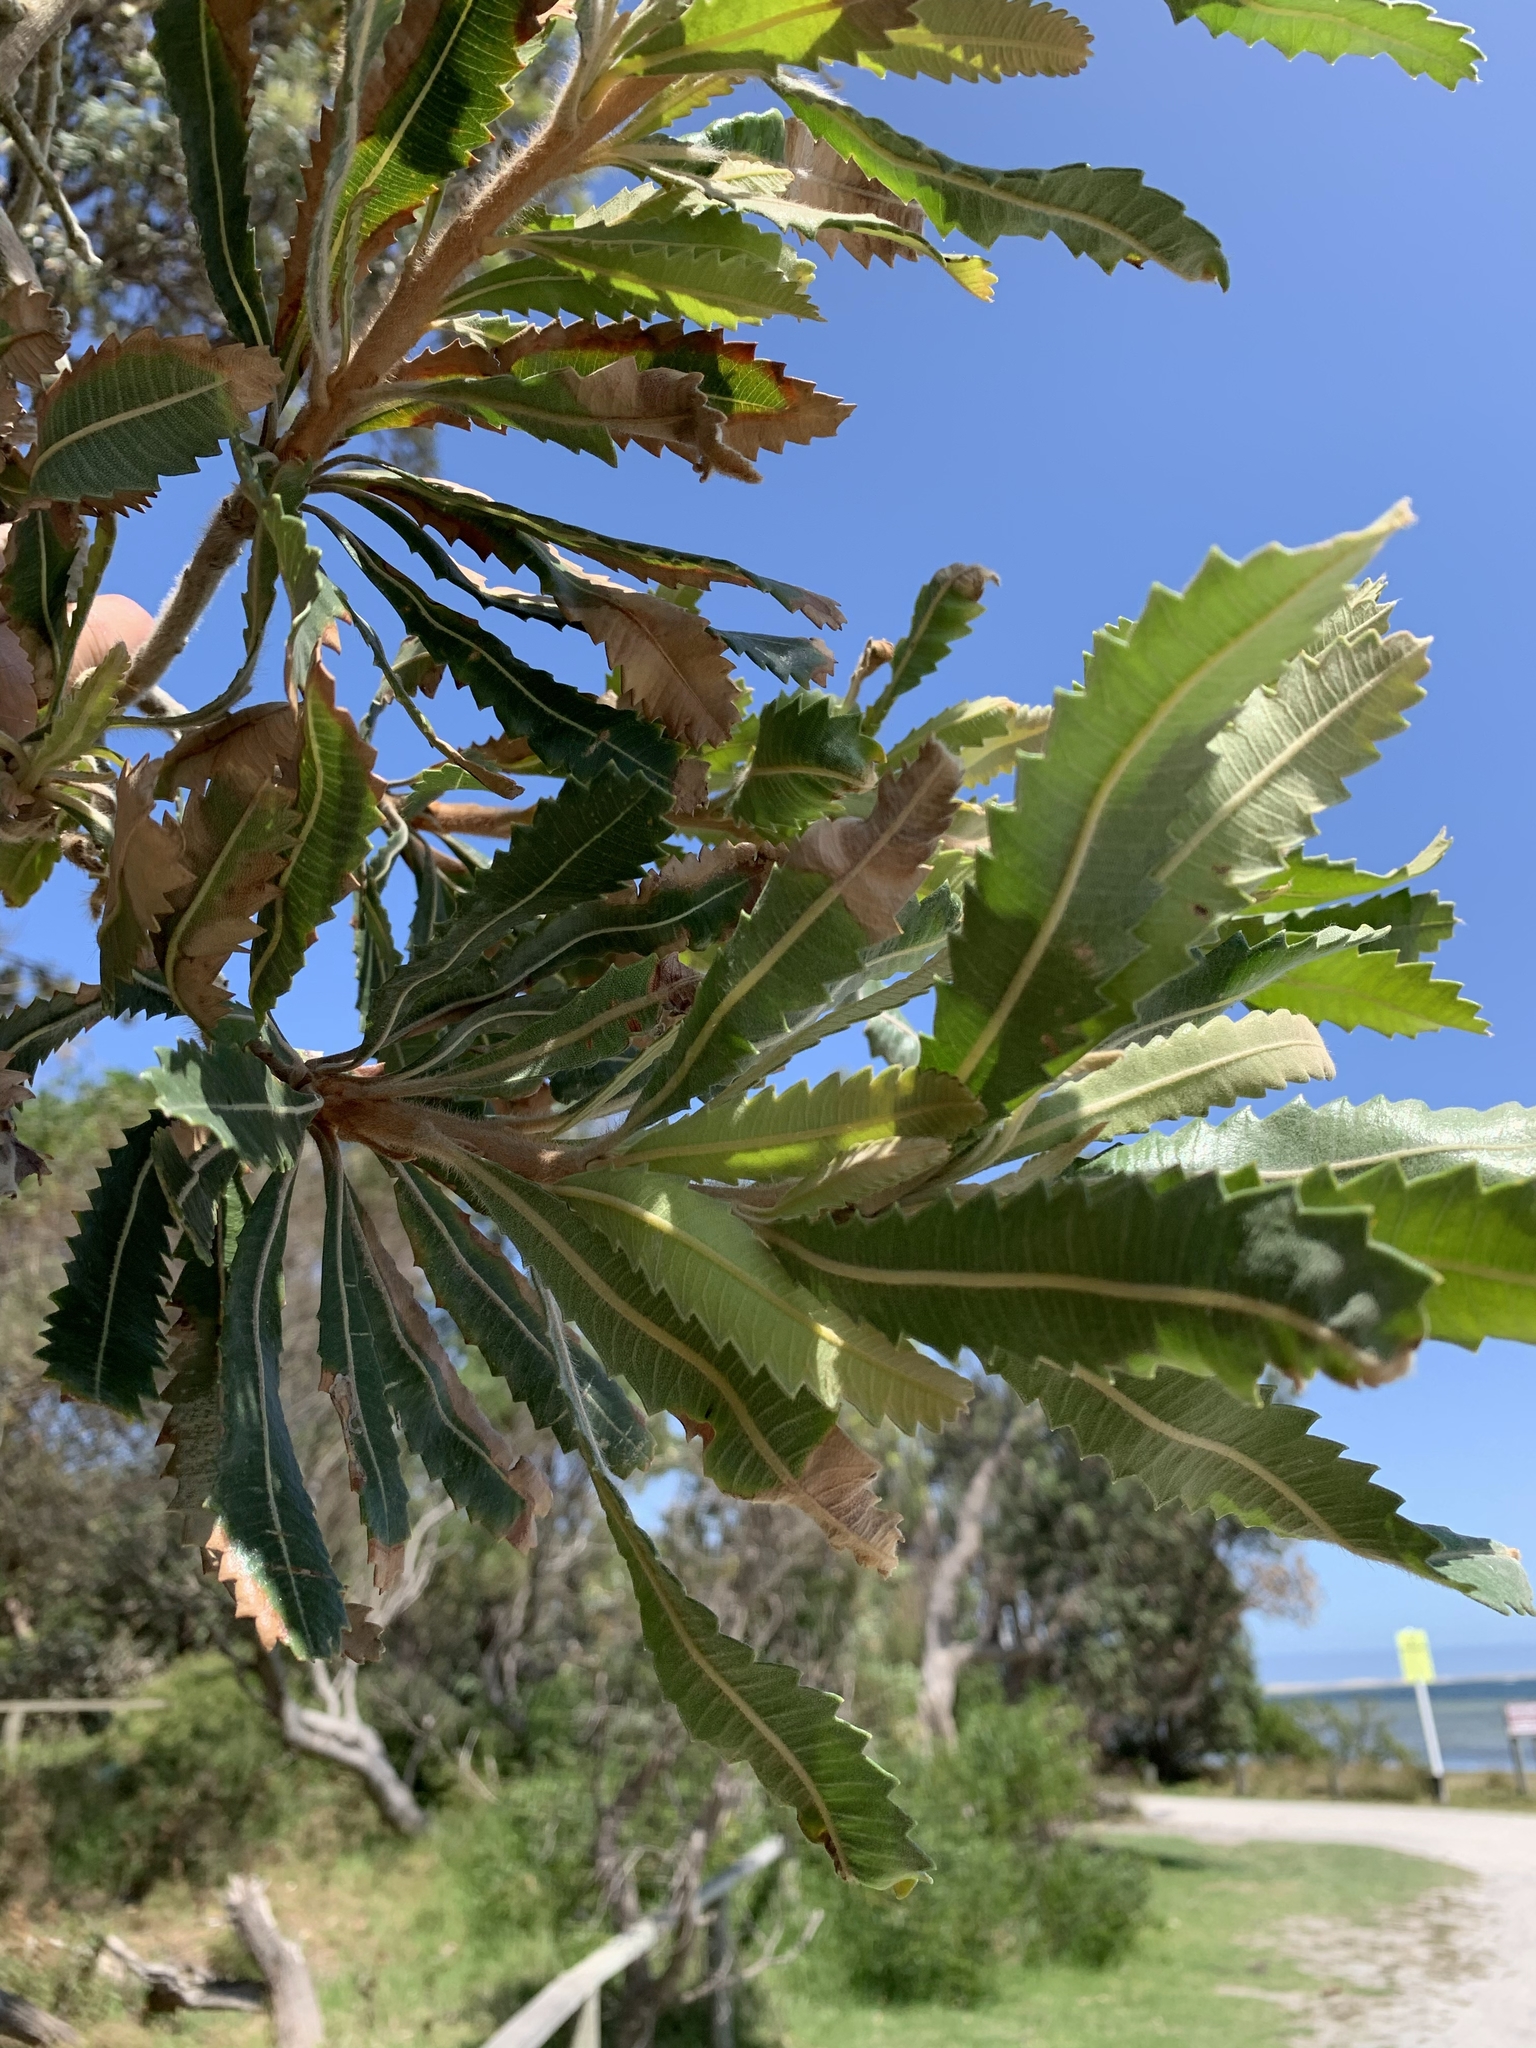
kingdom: Plantae
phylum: Tracheophyta
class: Magnoliopsida
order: Proteales
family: Proteaceae
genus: Banksia
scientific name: Banksia serrata
